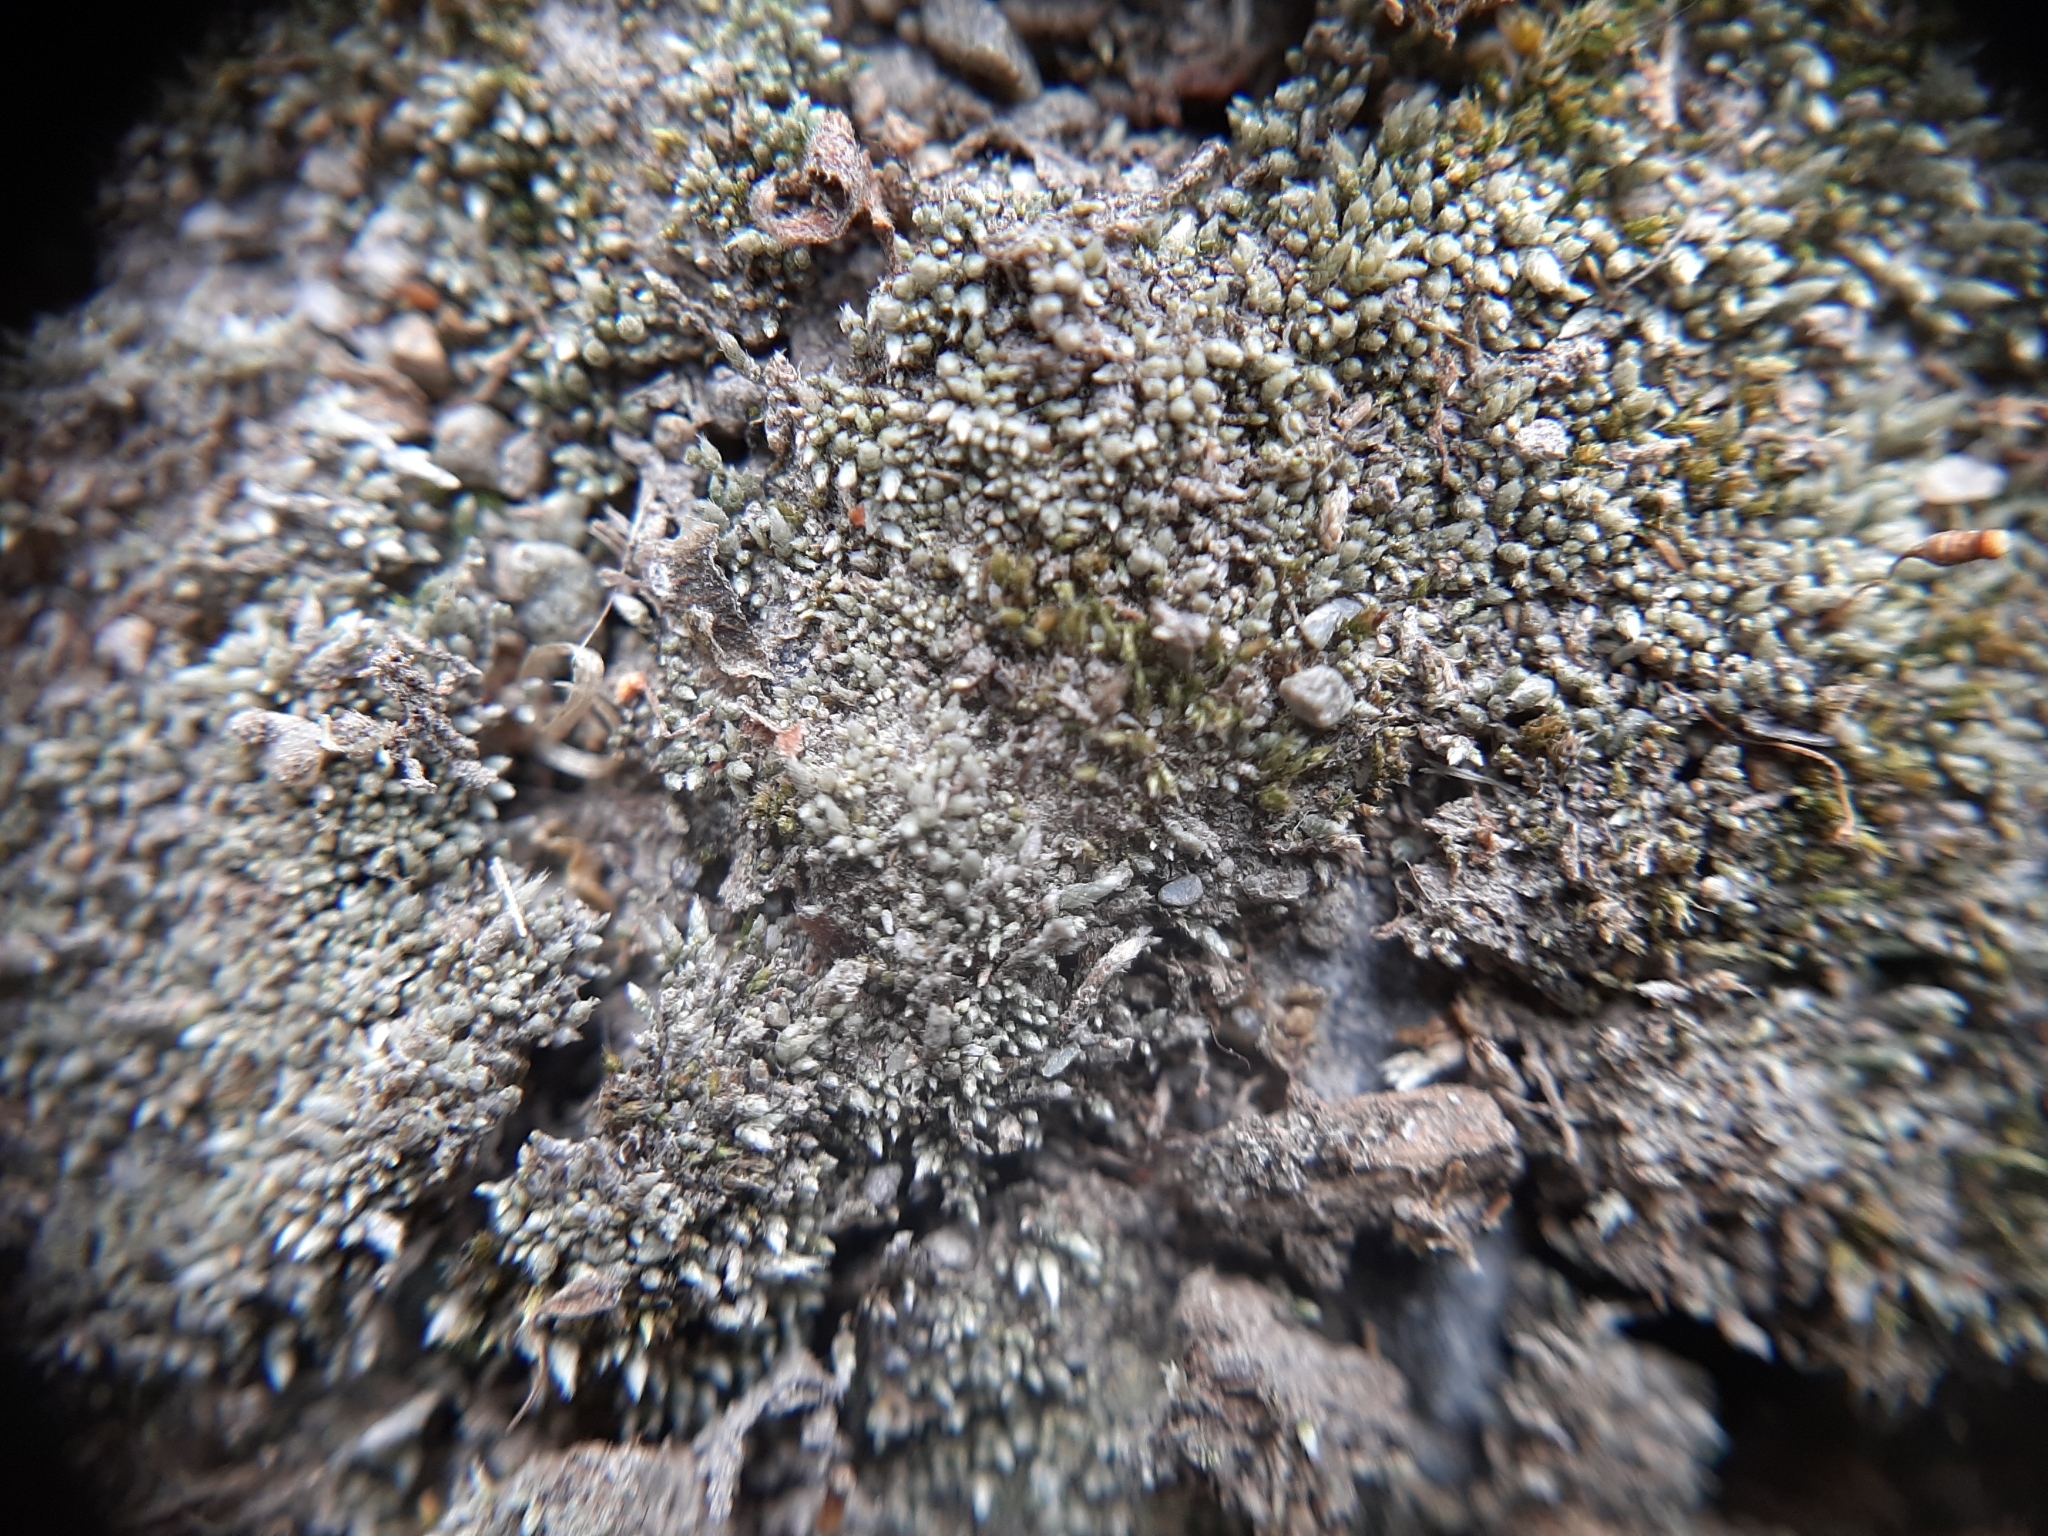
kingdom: Plantae
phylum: Bryophyta
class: Bryopsida
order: Bryales
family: Bryaceae
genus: Bryum
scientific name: Bryum argenteum
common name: Silver-moss
